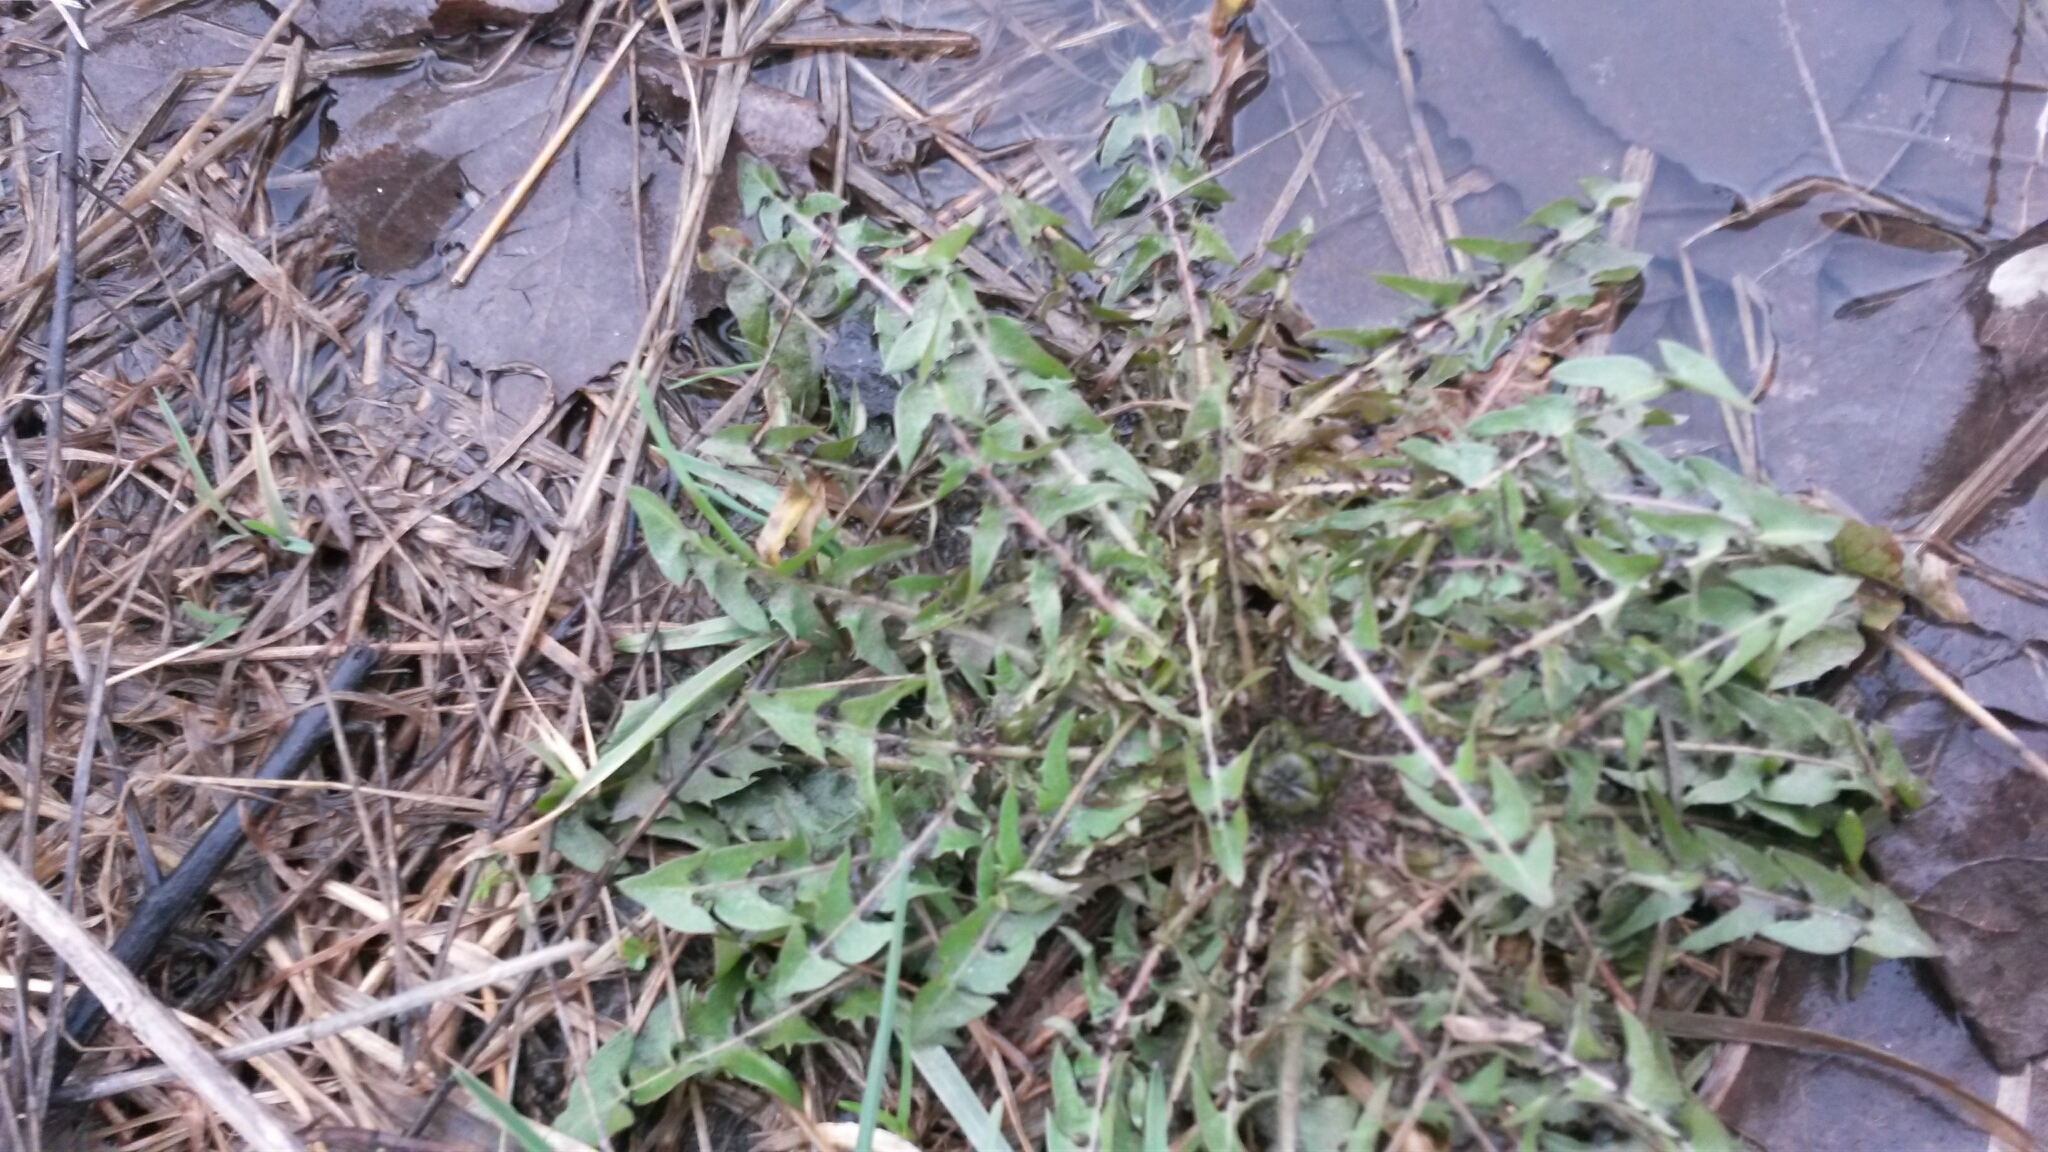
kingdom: Plantae
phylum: Tracheophyta
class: Magnoliopsida
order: Asterales
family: Asteraceae
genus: Taraxacum
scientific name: Taraxacum officinale
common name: Common dandelion
